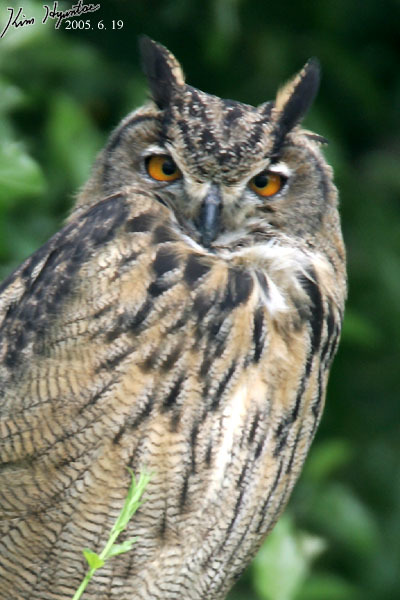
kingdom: Animalia
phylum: Chordata
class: Aves
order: Strigiformes
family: Strigidae
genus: Bubo
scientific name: Bubo bubo
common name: Eurasian eagle-owl
